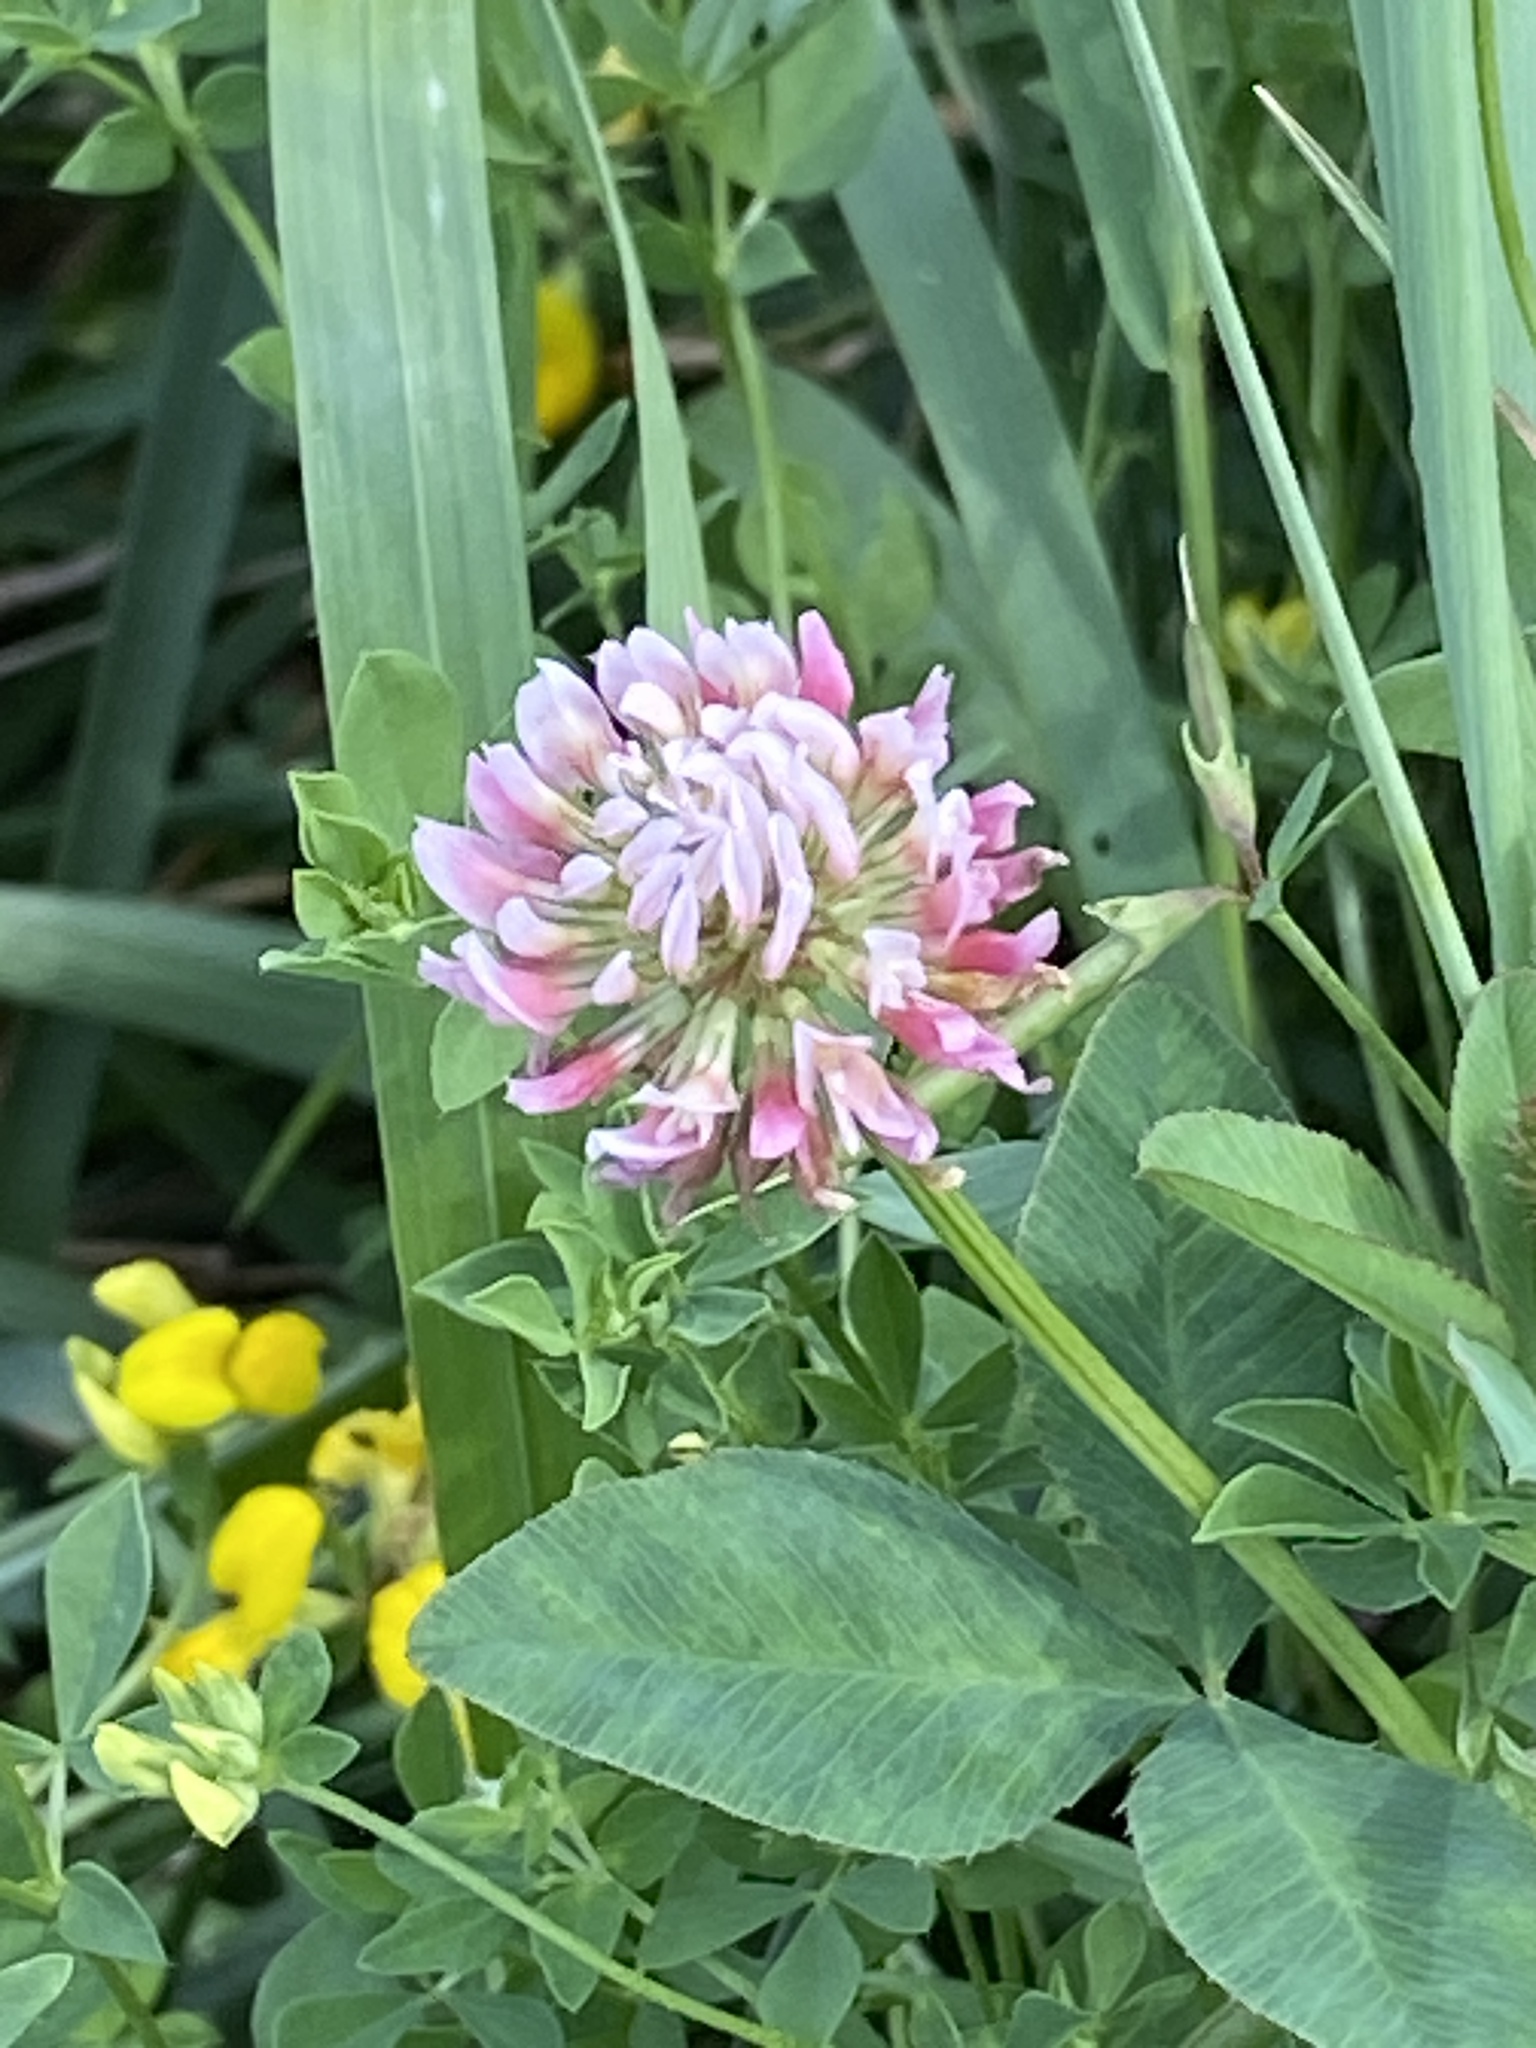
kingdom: Plantae
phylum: Tracheophyta
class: Magnoliopsida
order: Fabales
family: Fabaceae
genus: Trifolium
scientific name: Trifolium hybridum
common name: Alsike clover
